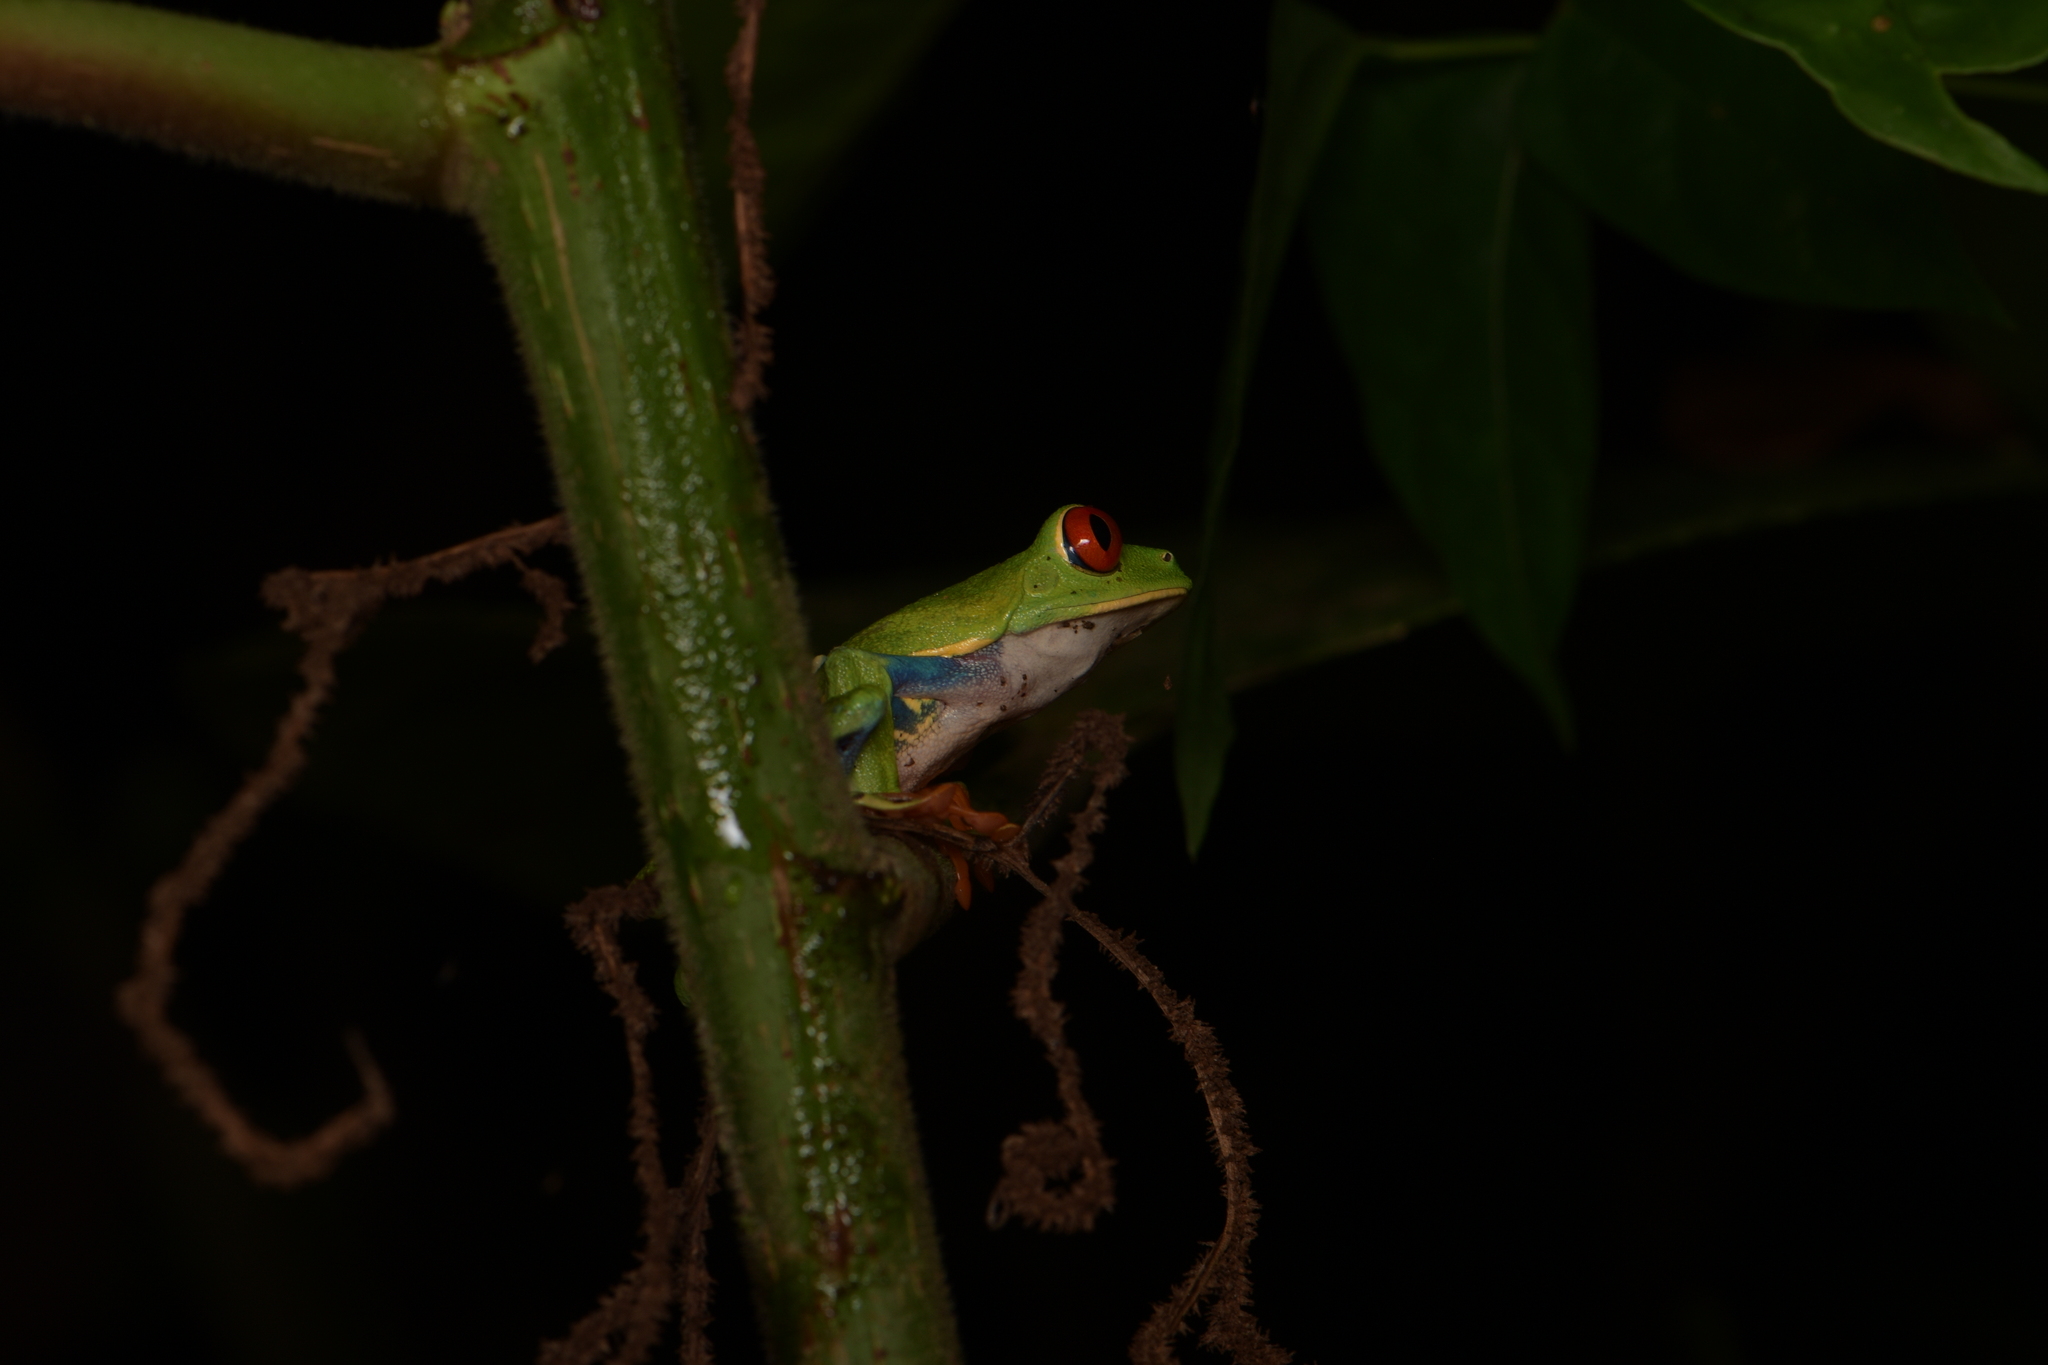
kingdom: Animalia
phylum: Chordata
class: Amphibia
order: Anura
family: Phyllomedusidae
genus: Agalychnis
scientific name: Agalychnis callidryas
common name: Red-eyed treefrog
